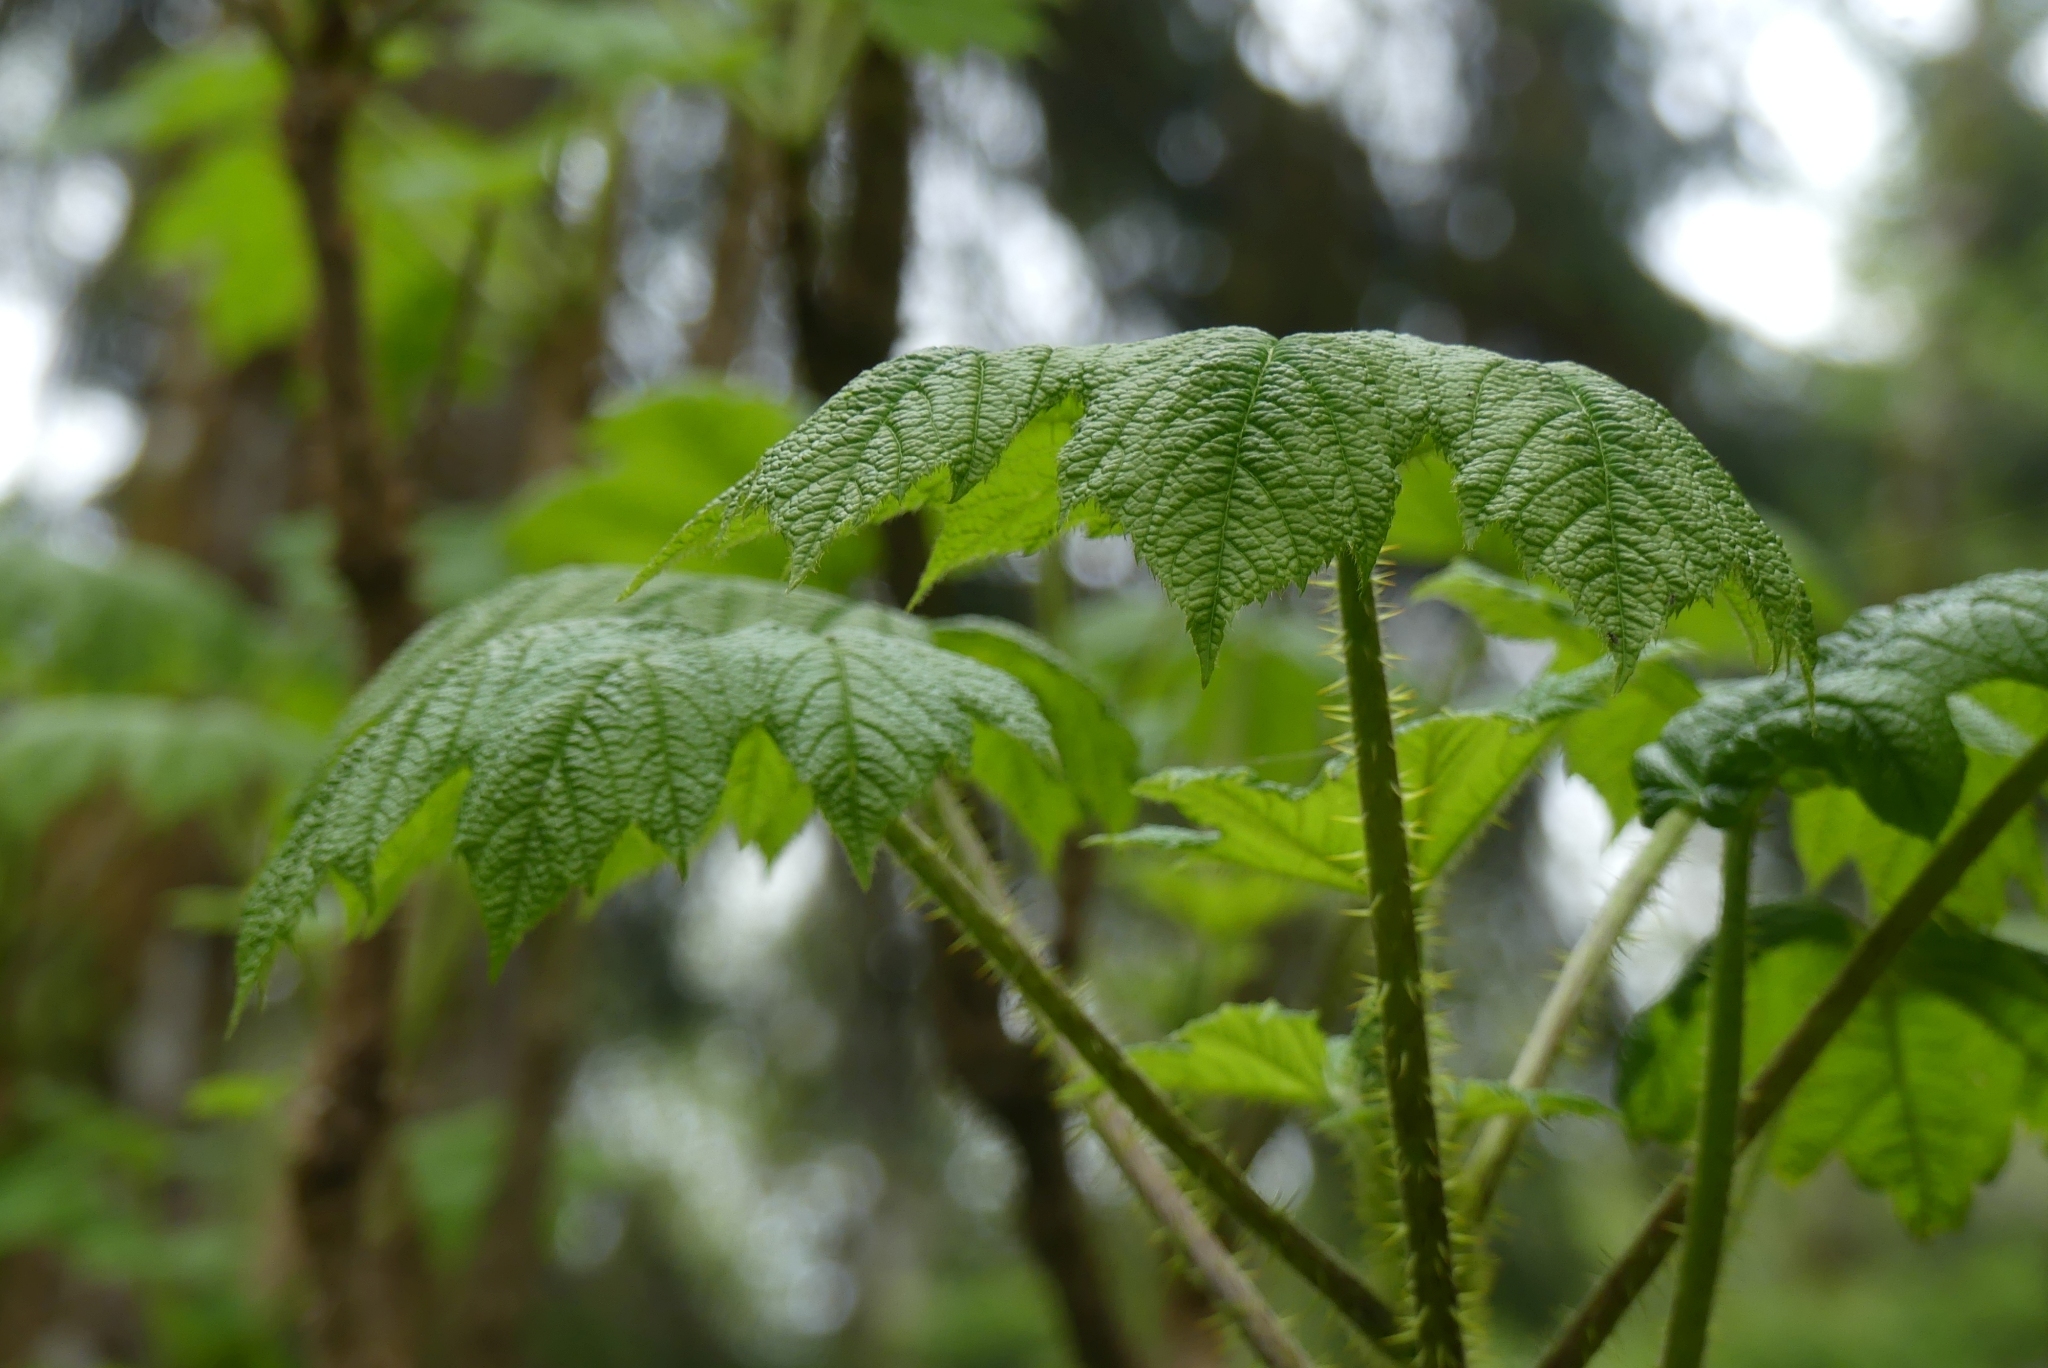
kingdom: Plantae
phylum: Tracheophyta
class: Magnoliopsida
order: Apiales
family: Araliaceae
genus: Oplopanax
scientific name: Oplopanax horridus
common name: Devil's walking-stick
